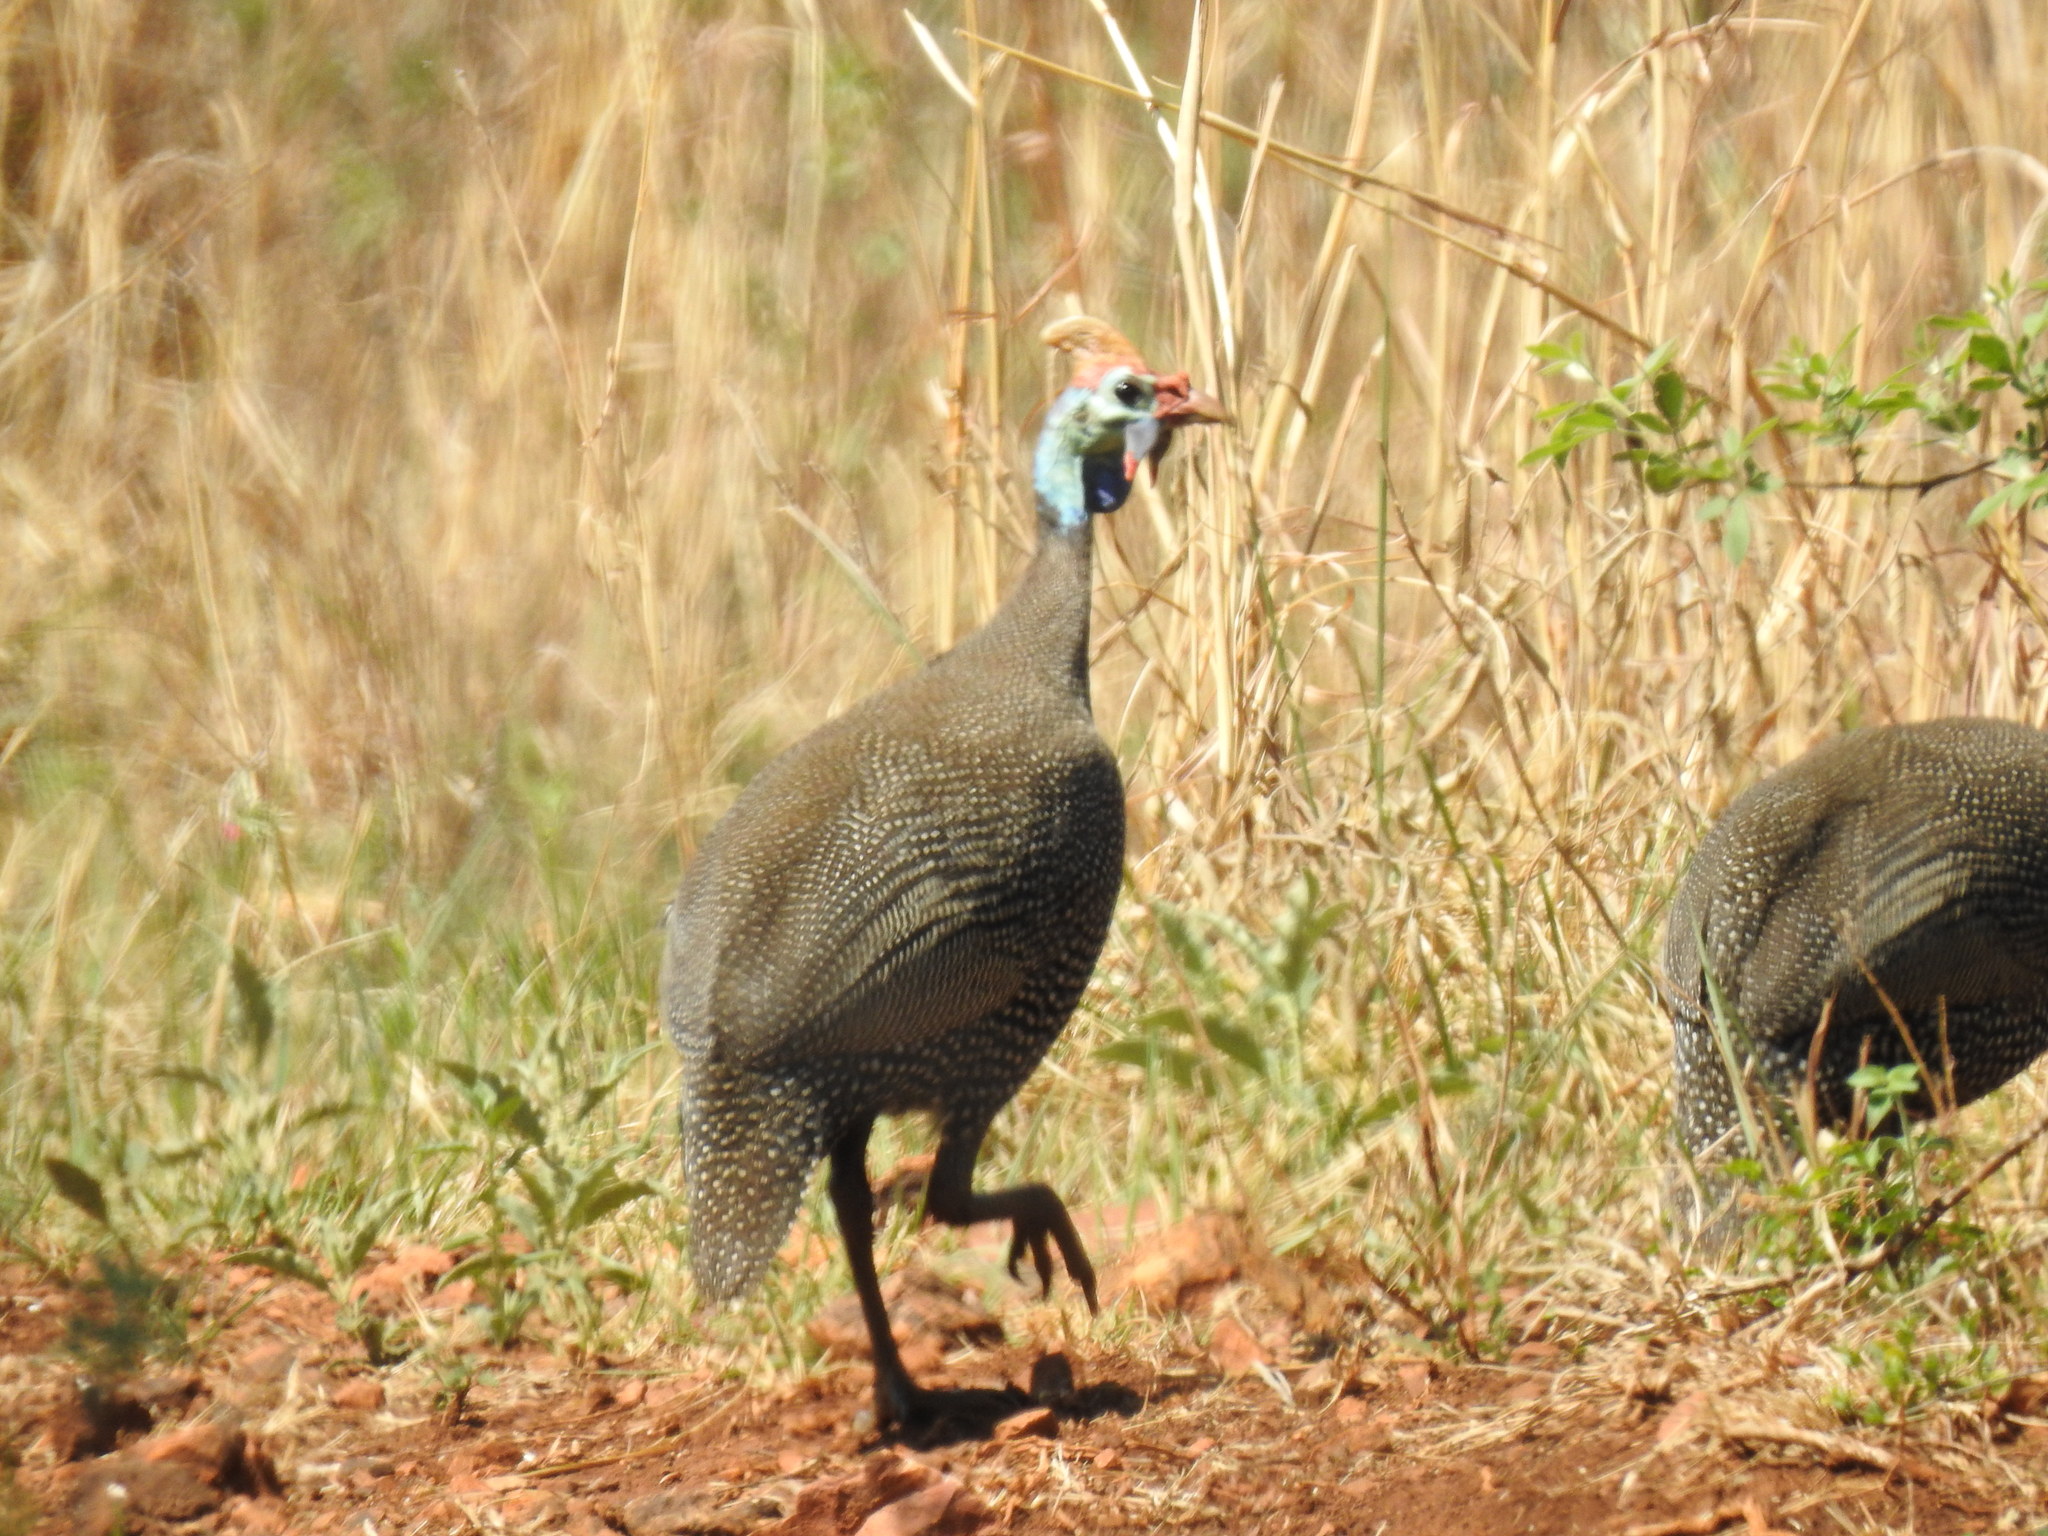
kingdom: Animalia
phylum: Chordata
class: Aves
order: Galliformes
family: Numididae
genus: Numida
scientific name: Numida meleagris
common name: Helmeted guineafowl
